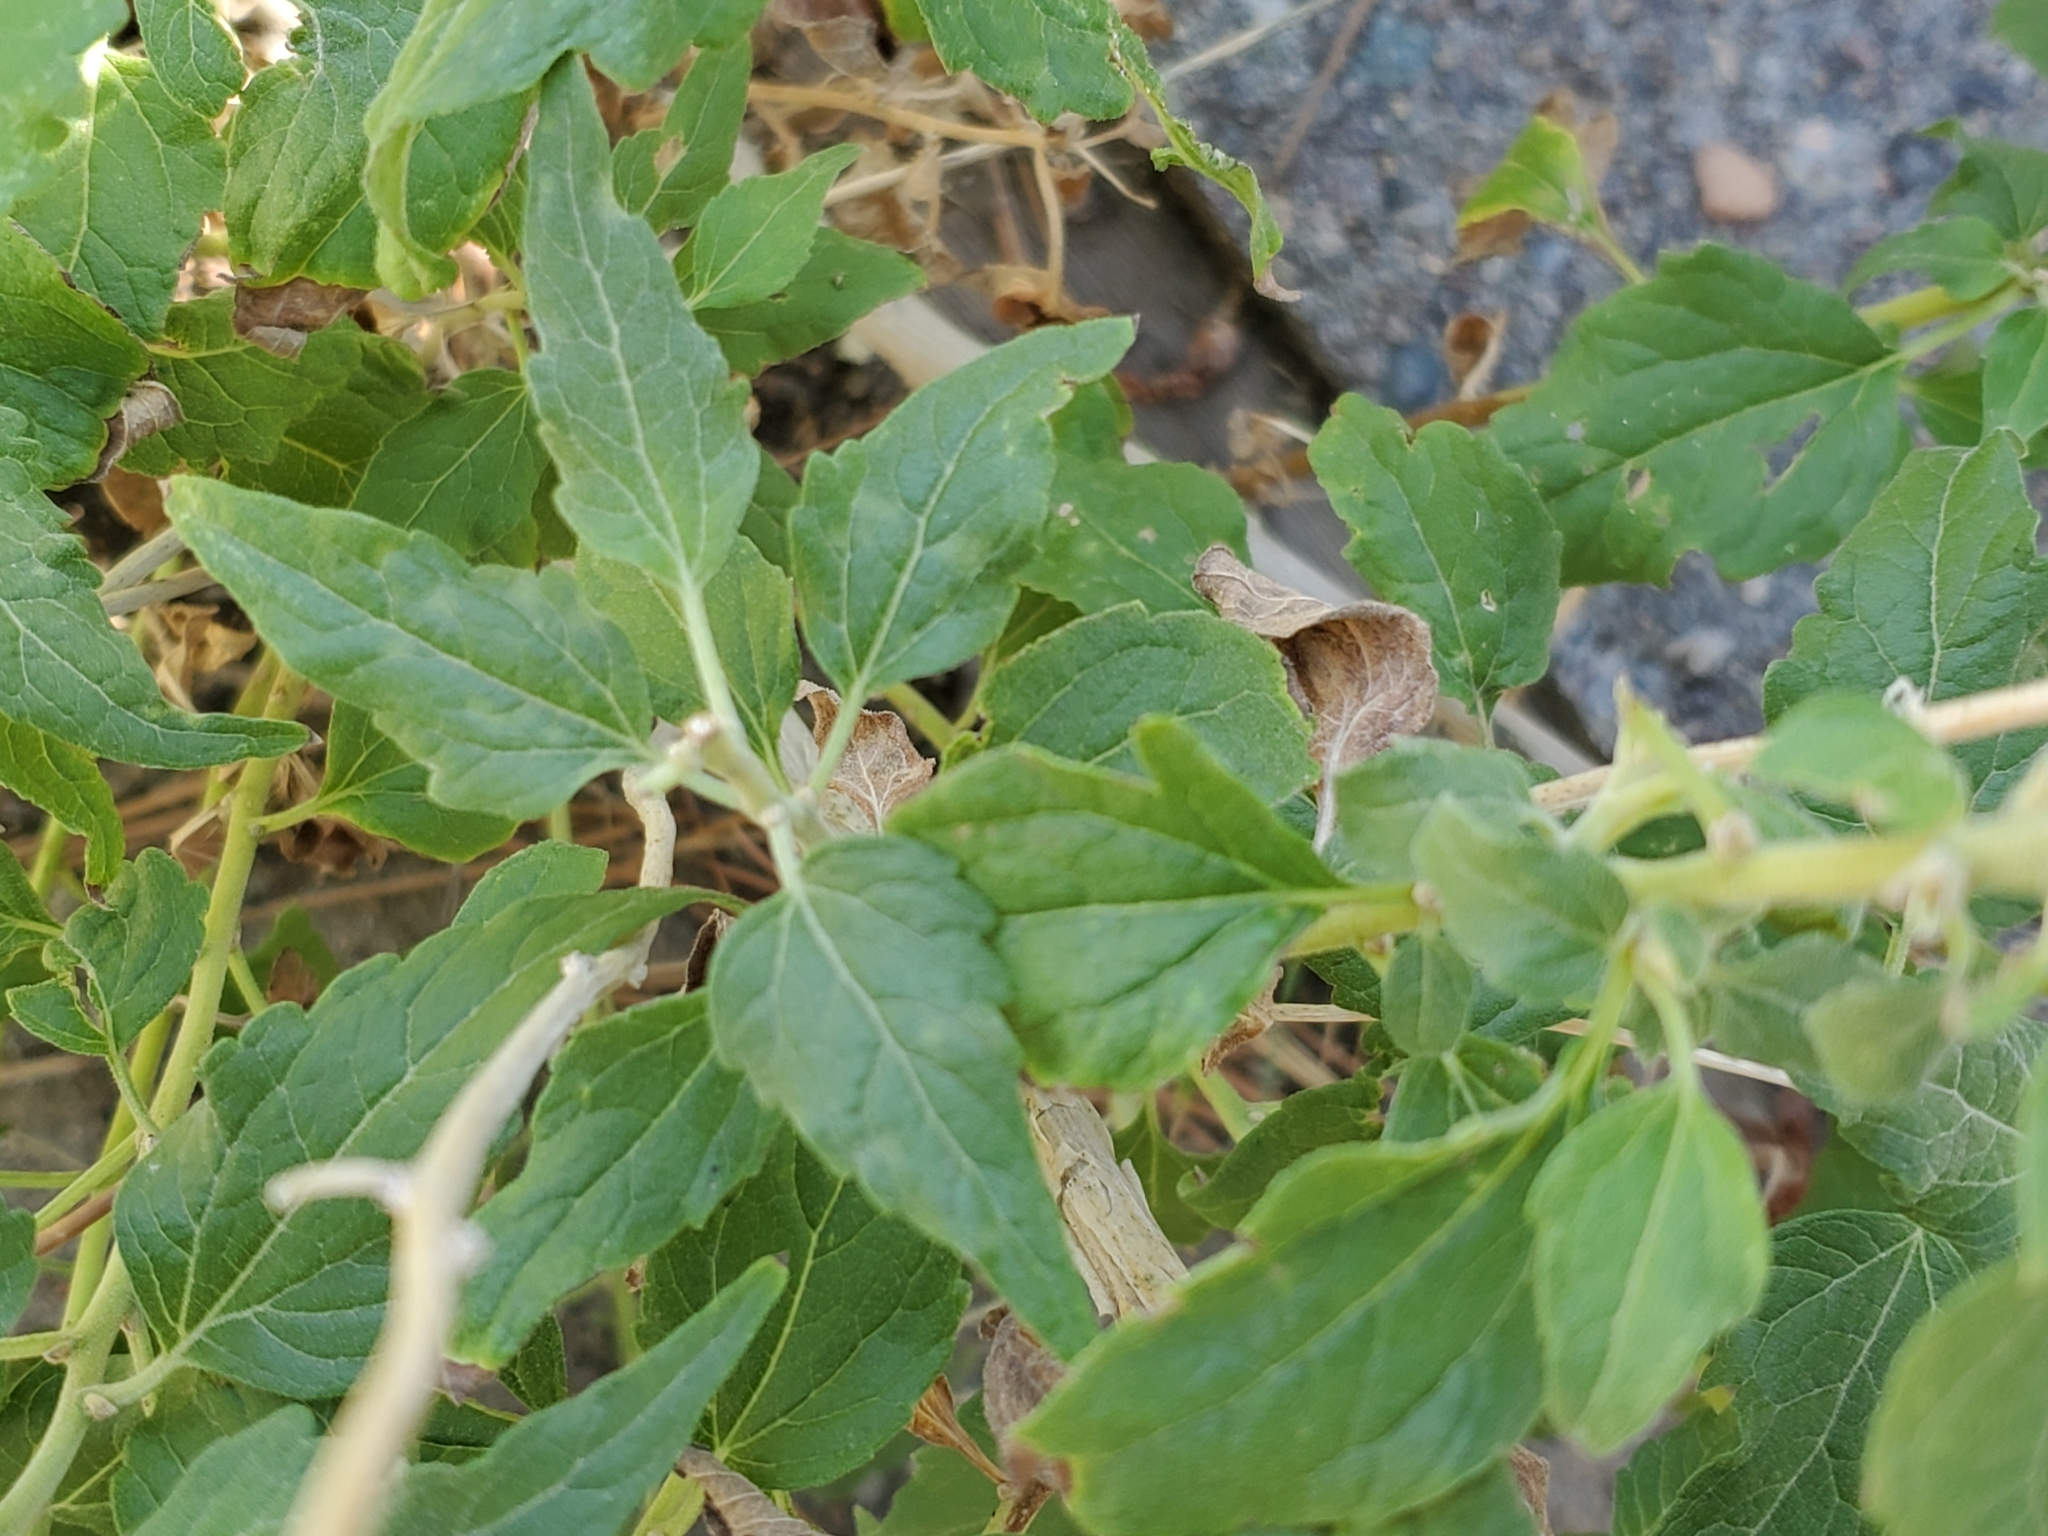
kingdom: Plantae
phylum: Tracheophyta
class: Magnoliopsida
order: Asterales
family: Asteraceae
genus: Brickellia
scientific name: Brickellia rusbyi
